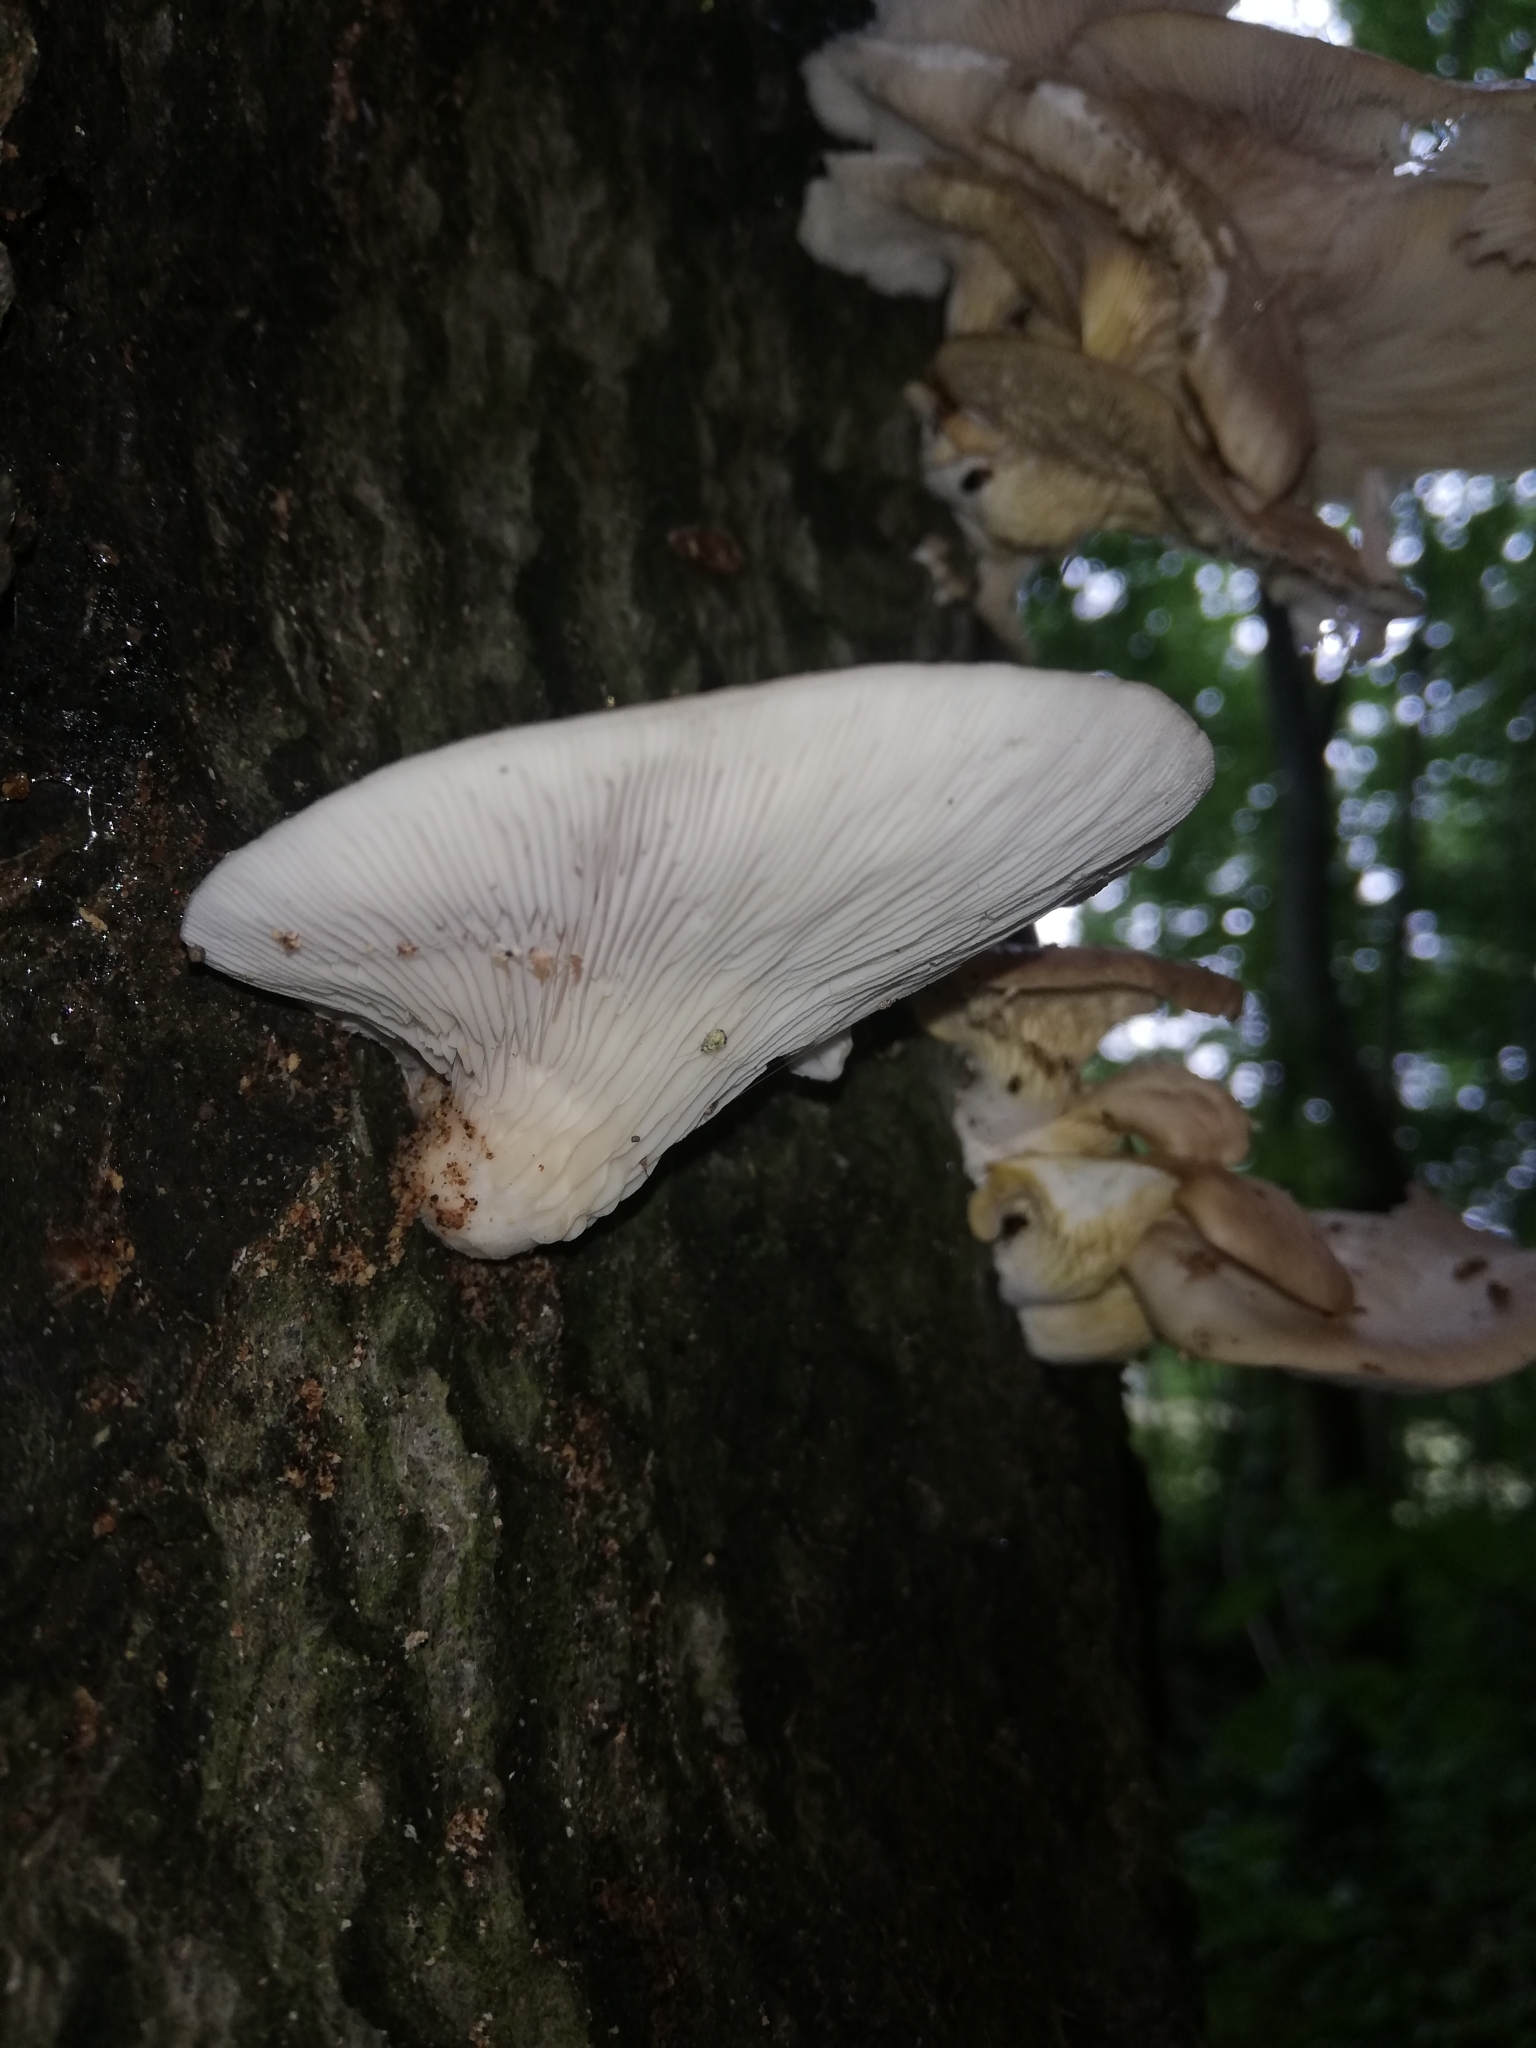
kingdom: Fungi
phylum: Basidiomycota
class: Agaricomycetes
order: Agaricales
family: Pleurotaceae
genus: Pleurotus
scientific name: Pleurotus pulmonarius
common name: Pale oyster
